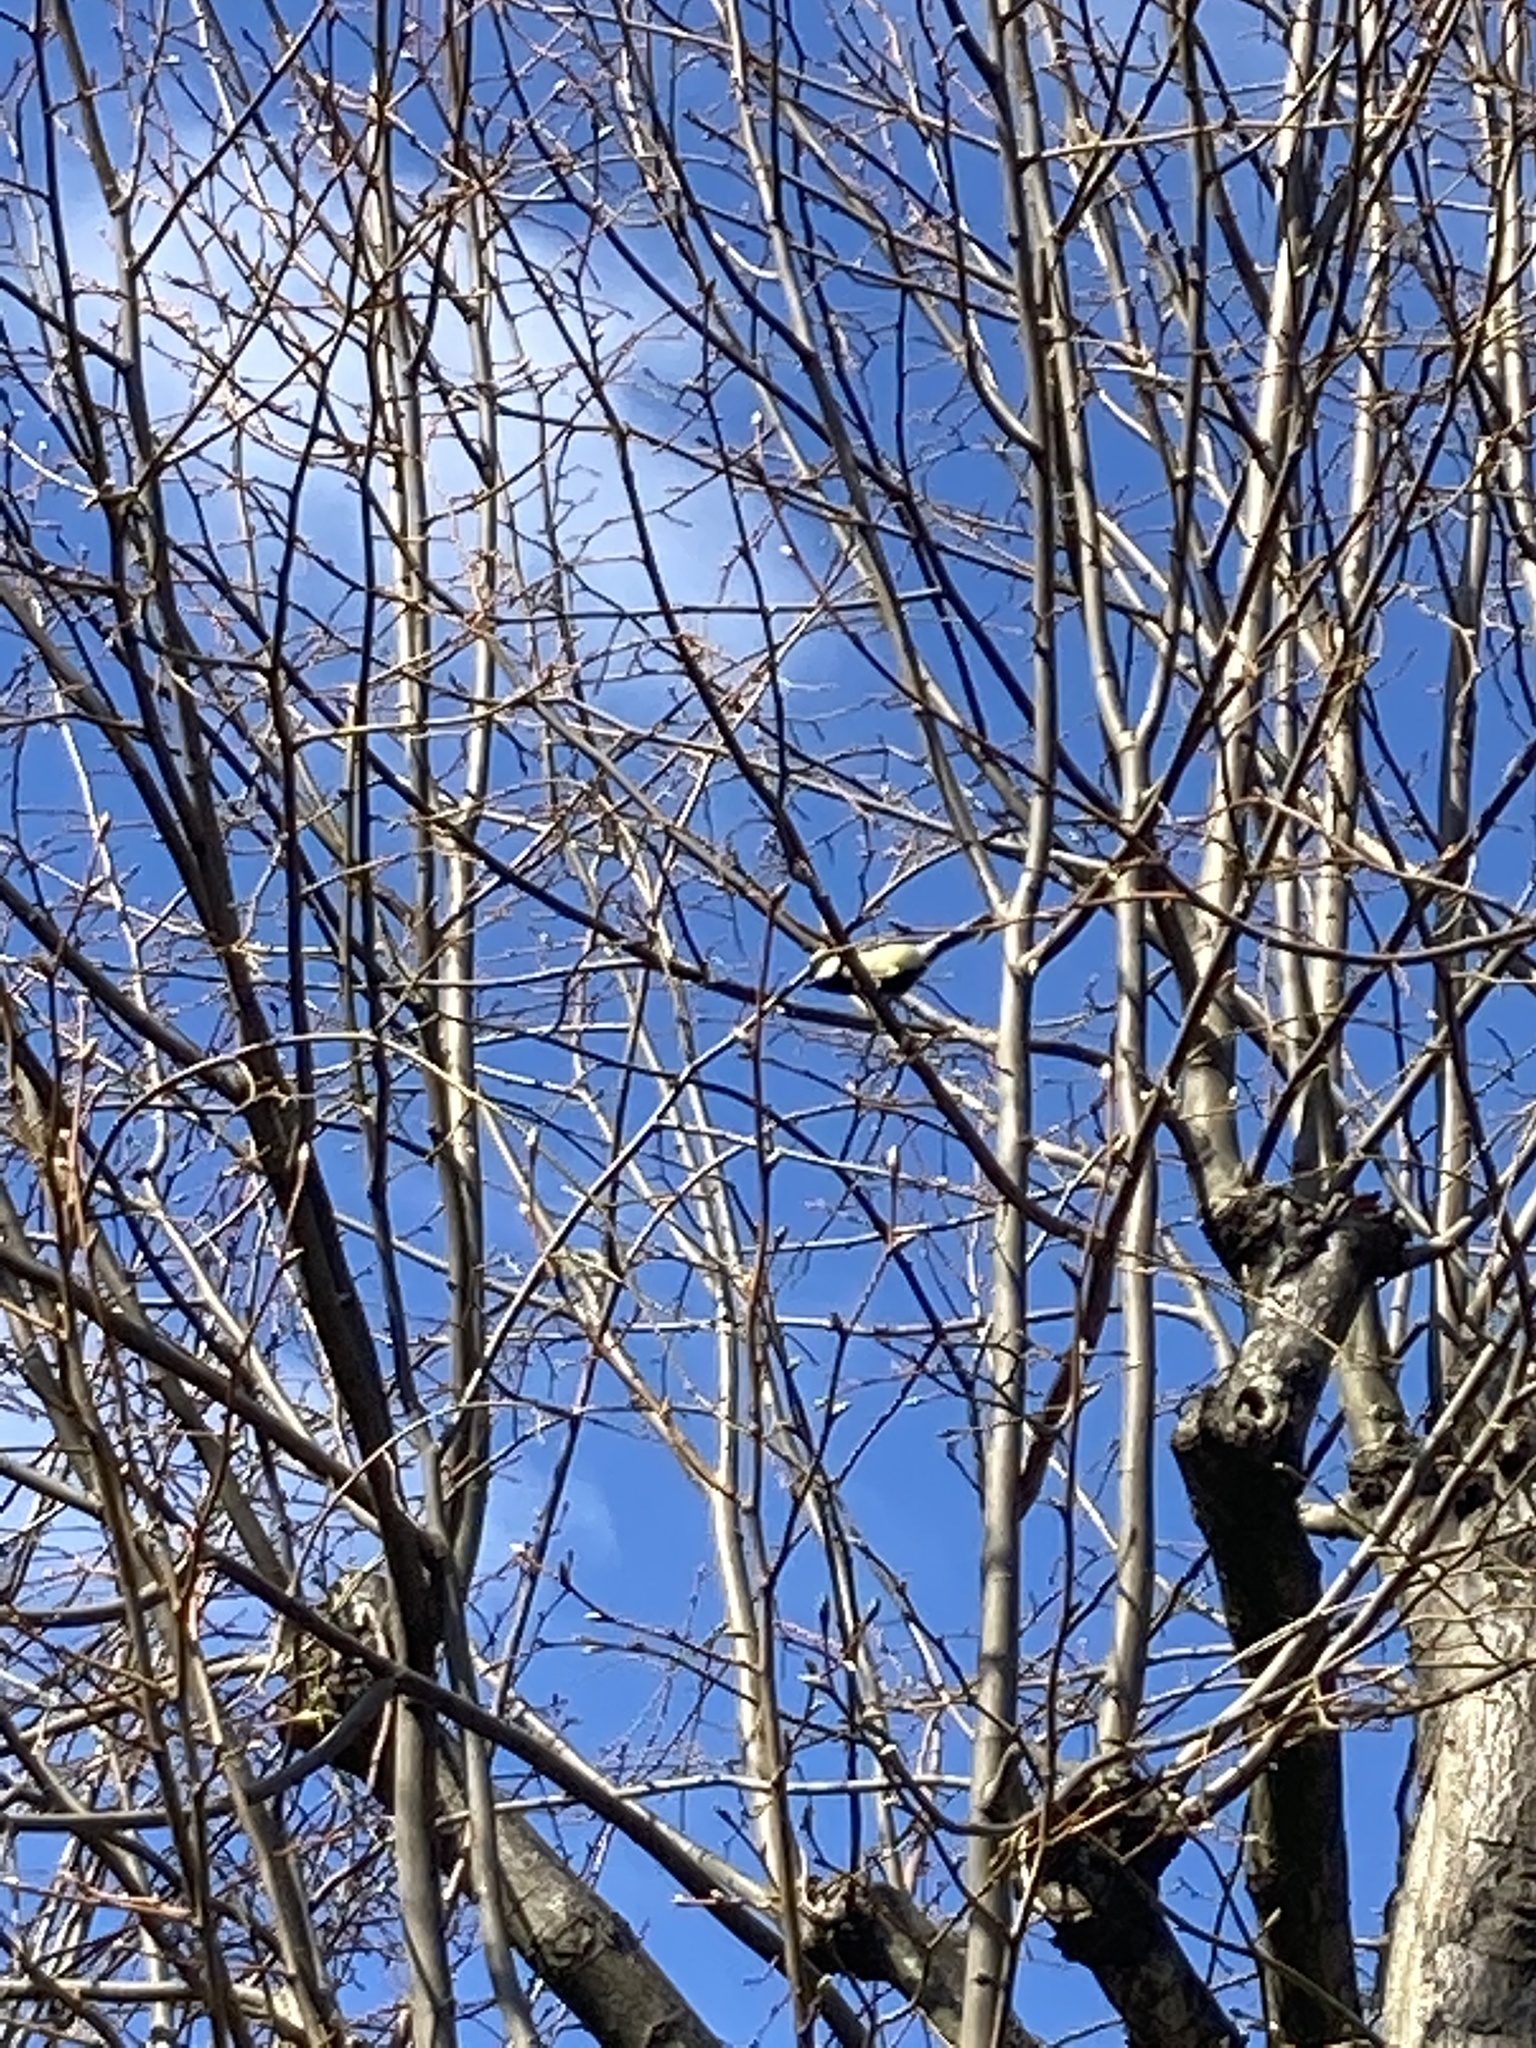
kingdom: Animalia
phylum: Chordata
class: Aves
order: Passeriformes
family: Paridae
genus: Parus
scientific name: Parus major
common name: Great tit
